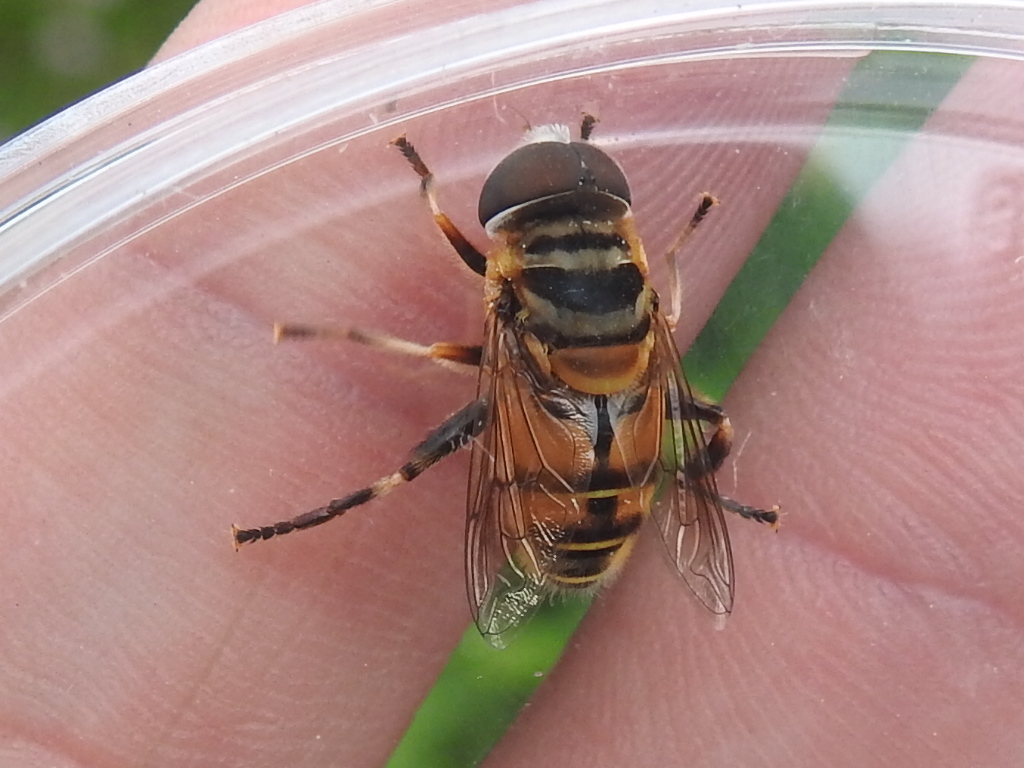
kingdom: Animalia
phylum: Arthropoda
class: Insecta
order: Diptera
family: Syrphidae
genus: Palpada
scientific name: Palpada vinetorum
